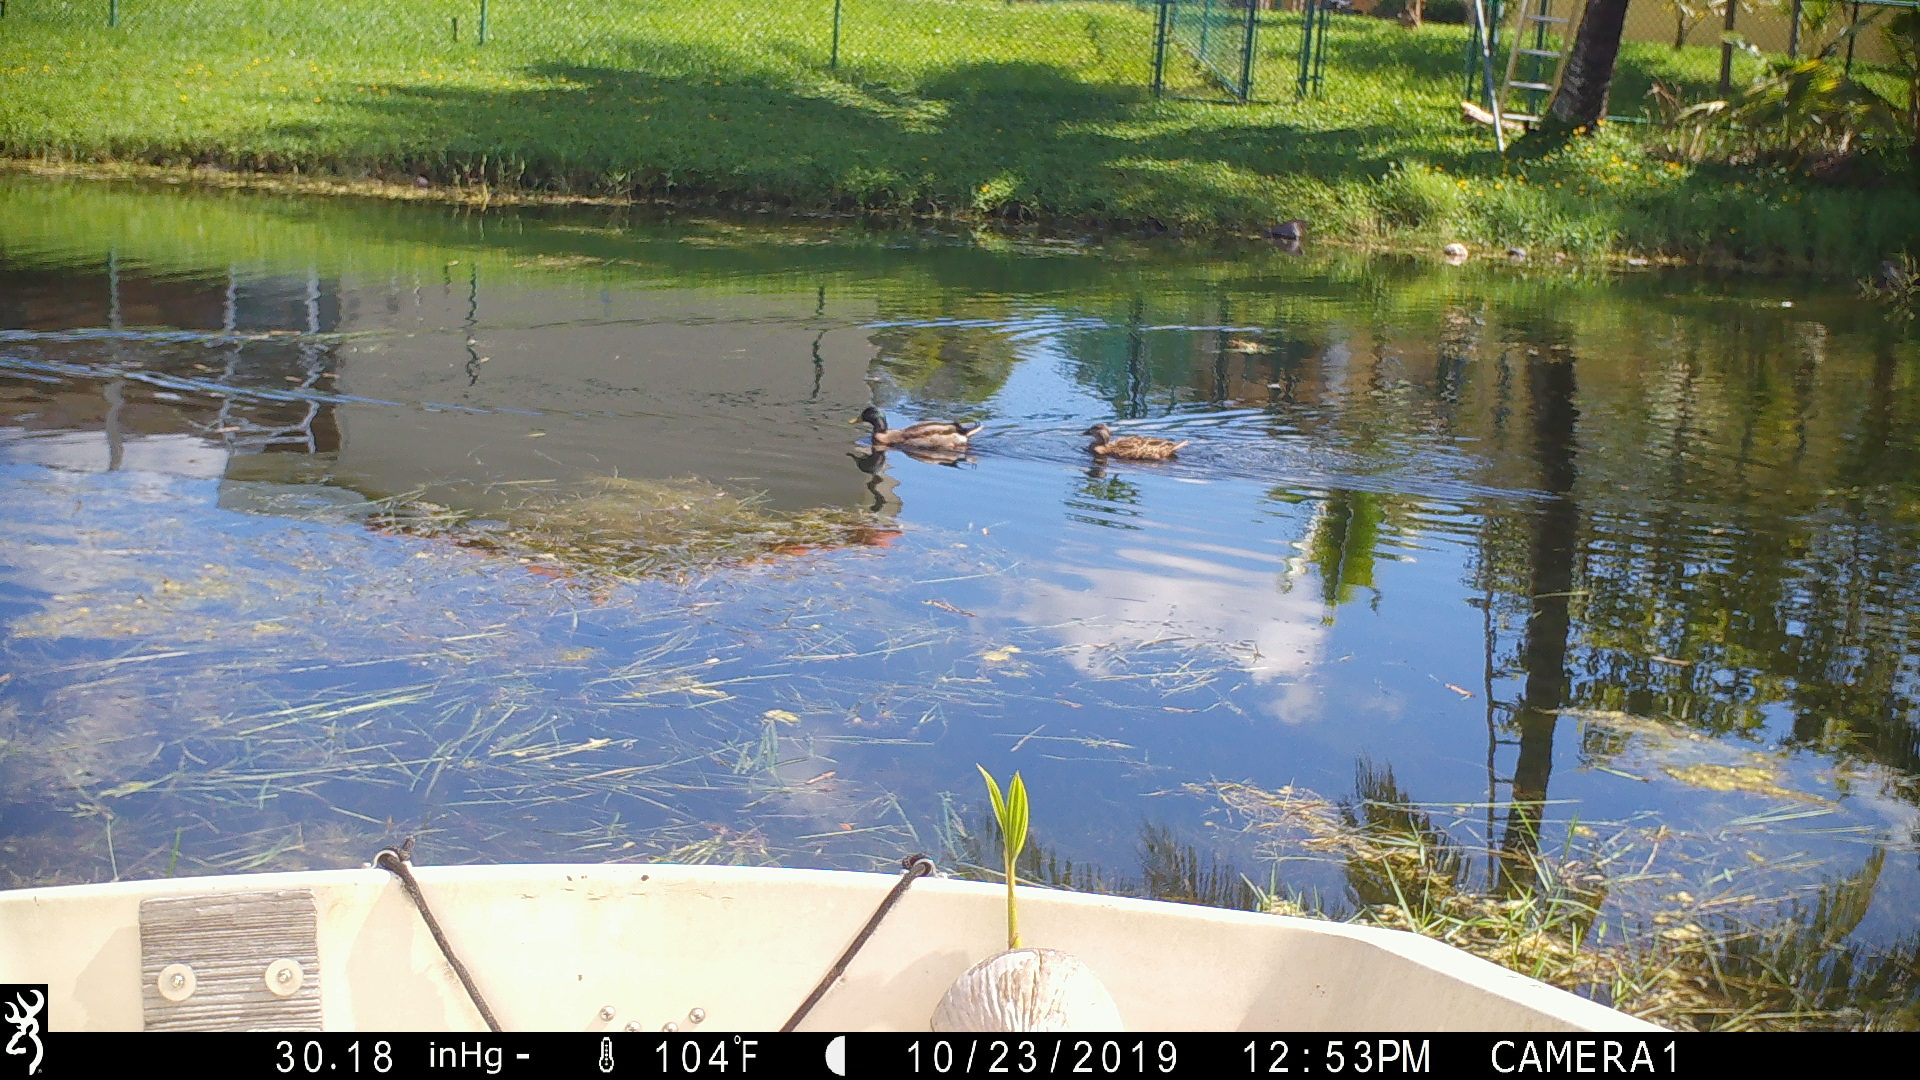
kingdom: Animalia
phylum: Chordata
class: Aves
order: Anseriformes
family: Anatidae
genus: Anas
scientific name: Anas platyrhynchos
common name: Mallard
